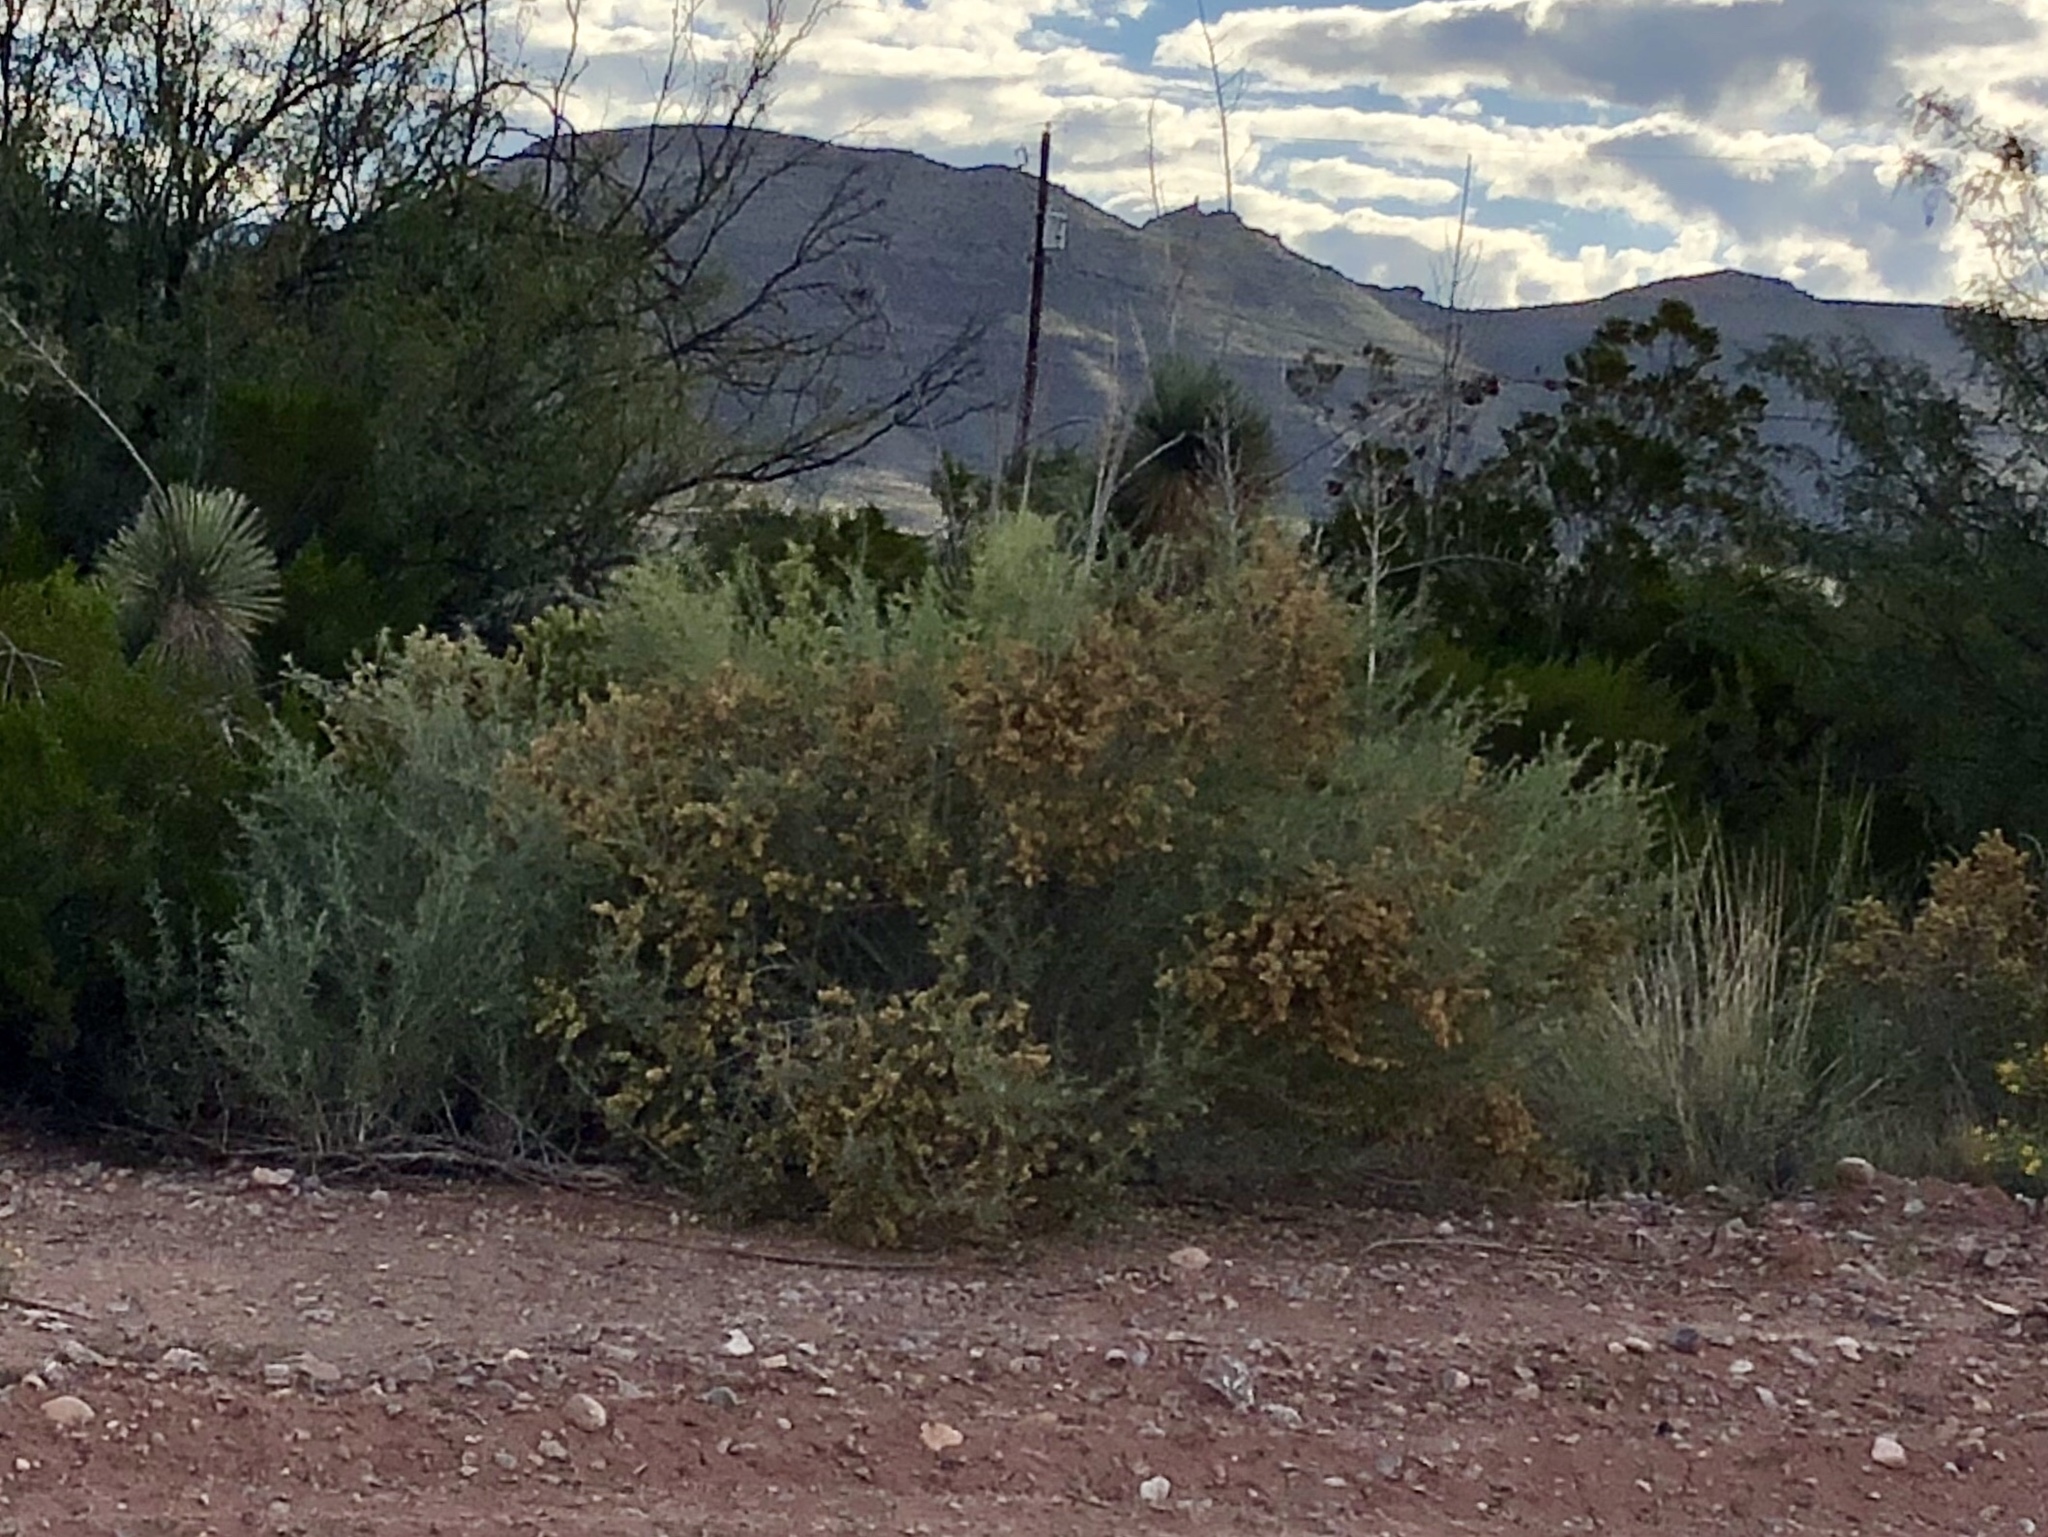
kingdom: Plantae
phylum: Tracheophyta
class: Magnoliopsida
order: Caryophyllales
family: Amaranthaceae
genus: Atriplex
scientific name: Atriplex canescens
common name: Four-wing saltbush
